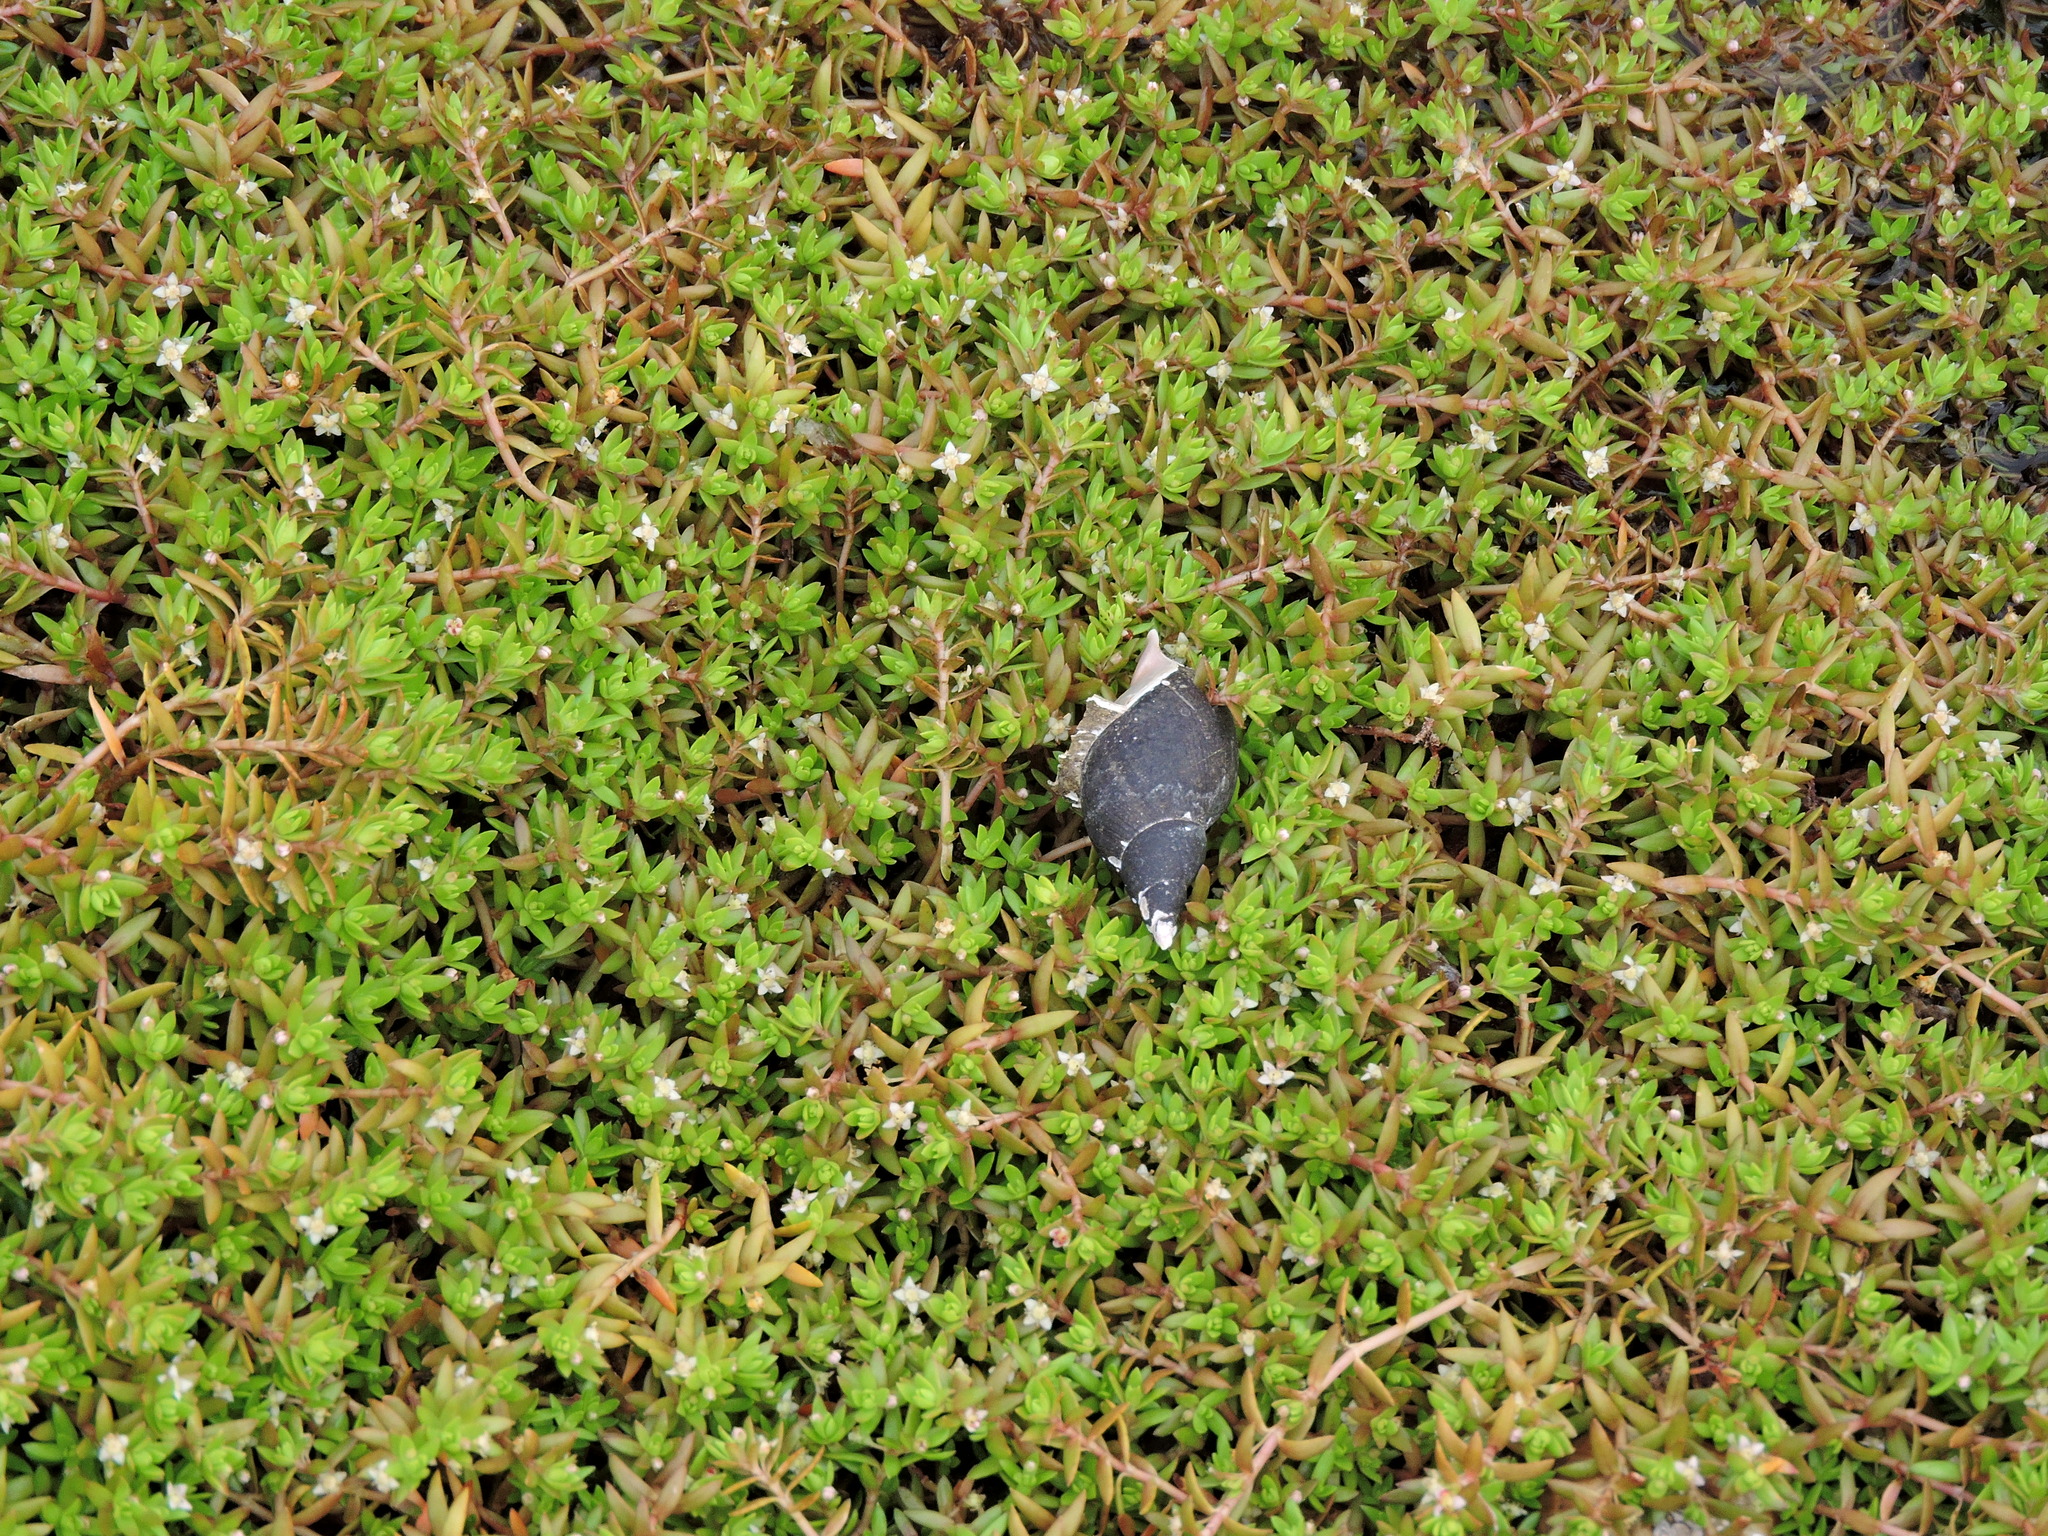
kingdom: Plantae
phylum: Tracheophyta
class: Magnoliopsida
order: Saxifragales
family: Crassulaceae
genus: Crassula
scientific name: Crassula helmsii
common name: New zealand pigmyweed
